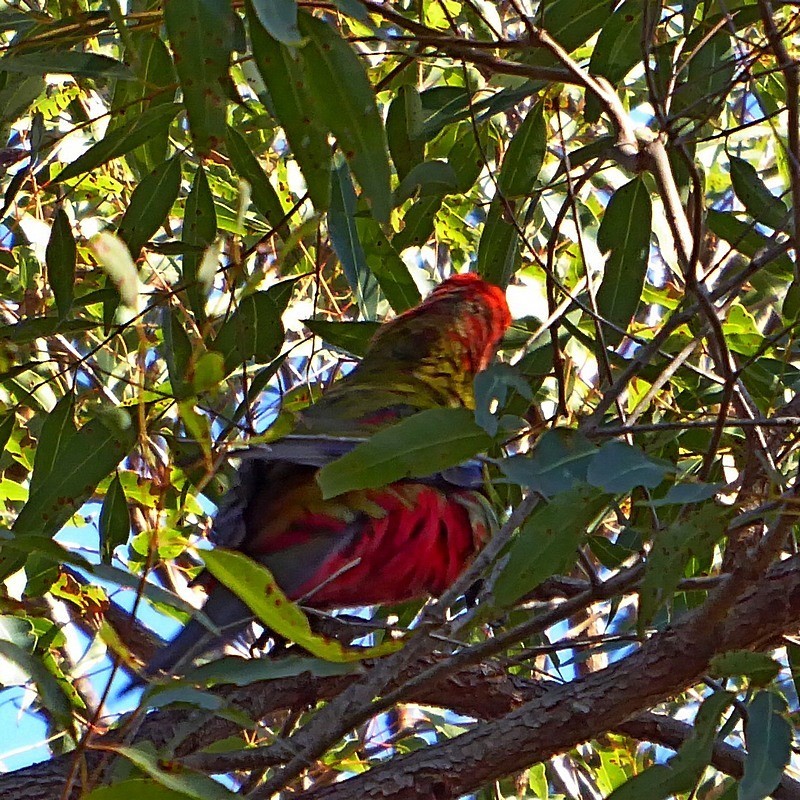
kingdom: Animalia
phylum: Chordata
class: Aves
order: Psittaciformes
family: Psittacidae
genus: Platycercus
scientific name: Platycercus elegans
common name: Crimson rosella
